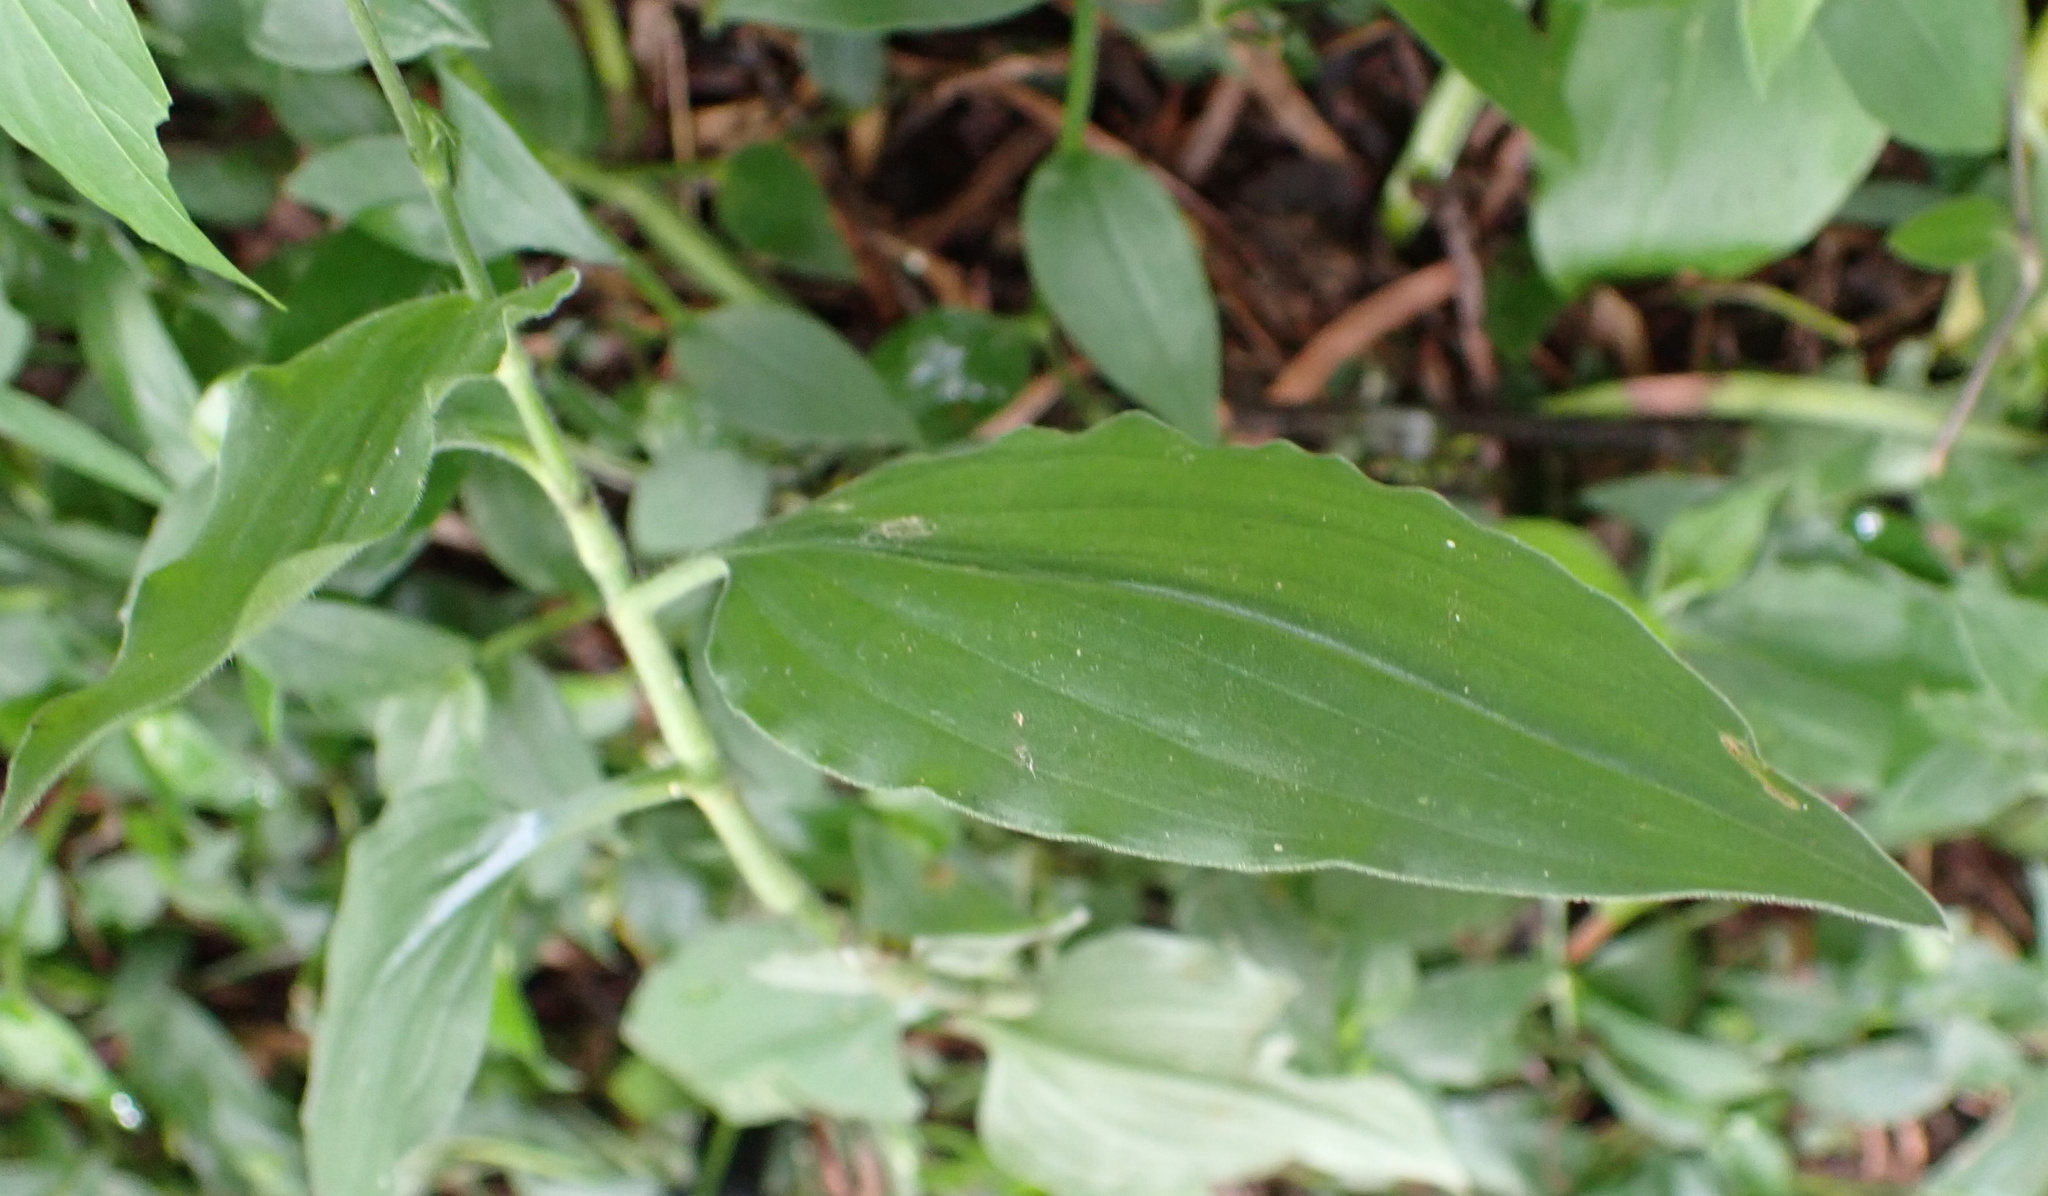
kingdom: Plantae
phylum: Tracheophyta
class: Liliopsida
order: Commelinales
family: Commelinaceae
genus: Aneilema
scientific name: Aneilema aequinoctiale
